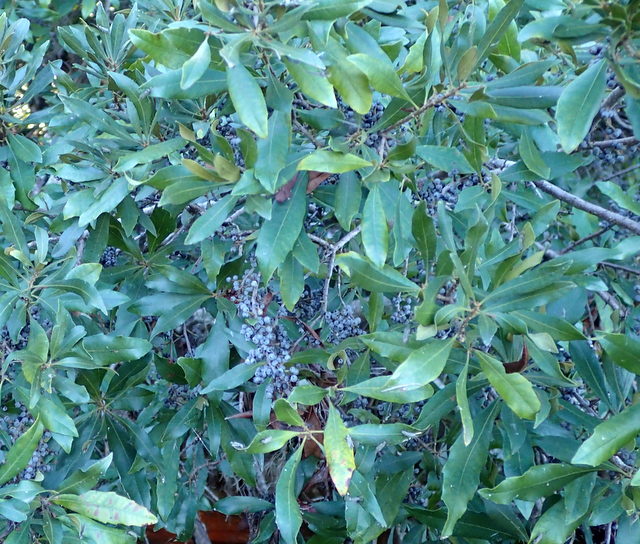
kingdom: Plantae
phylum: Tracheophyta
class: Magnoliopsida
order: Fagales
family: Myricaceae
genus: Morella
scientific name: Morella cerifera
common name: Wax myrtle
